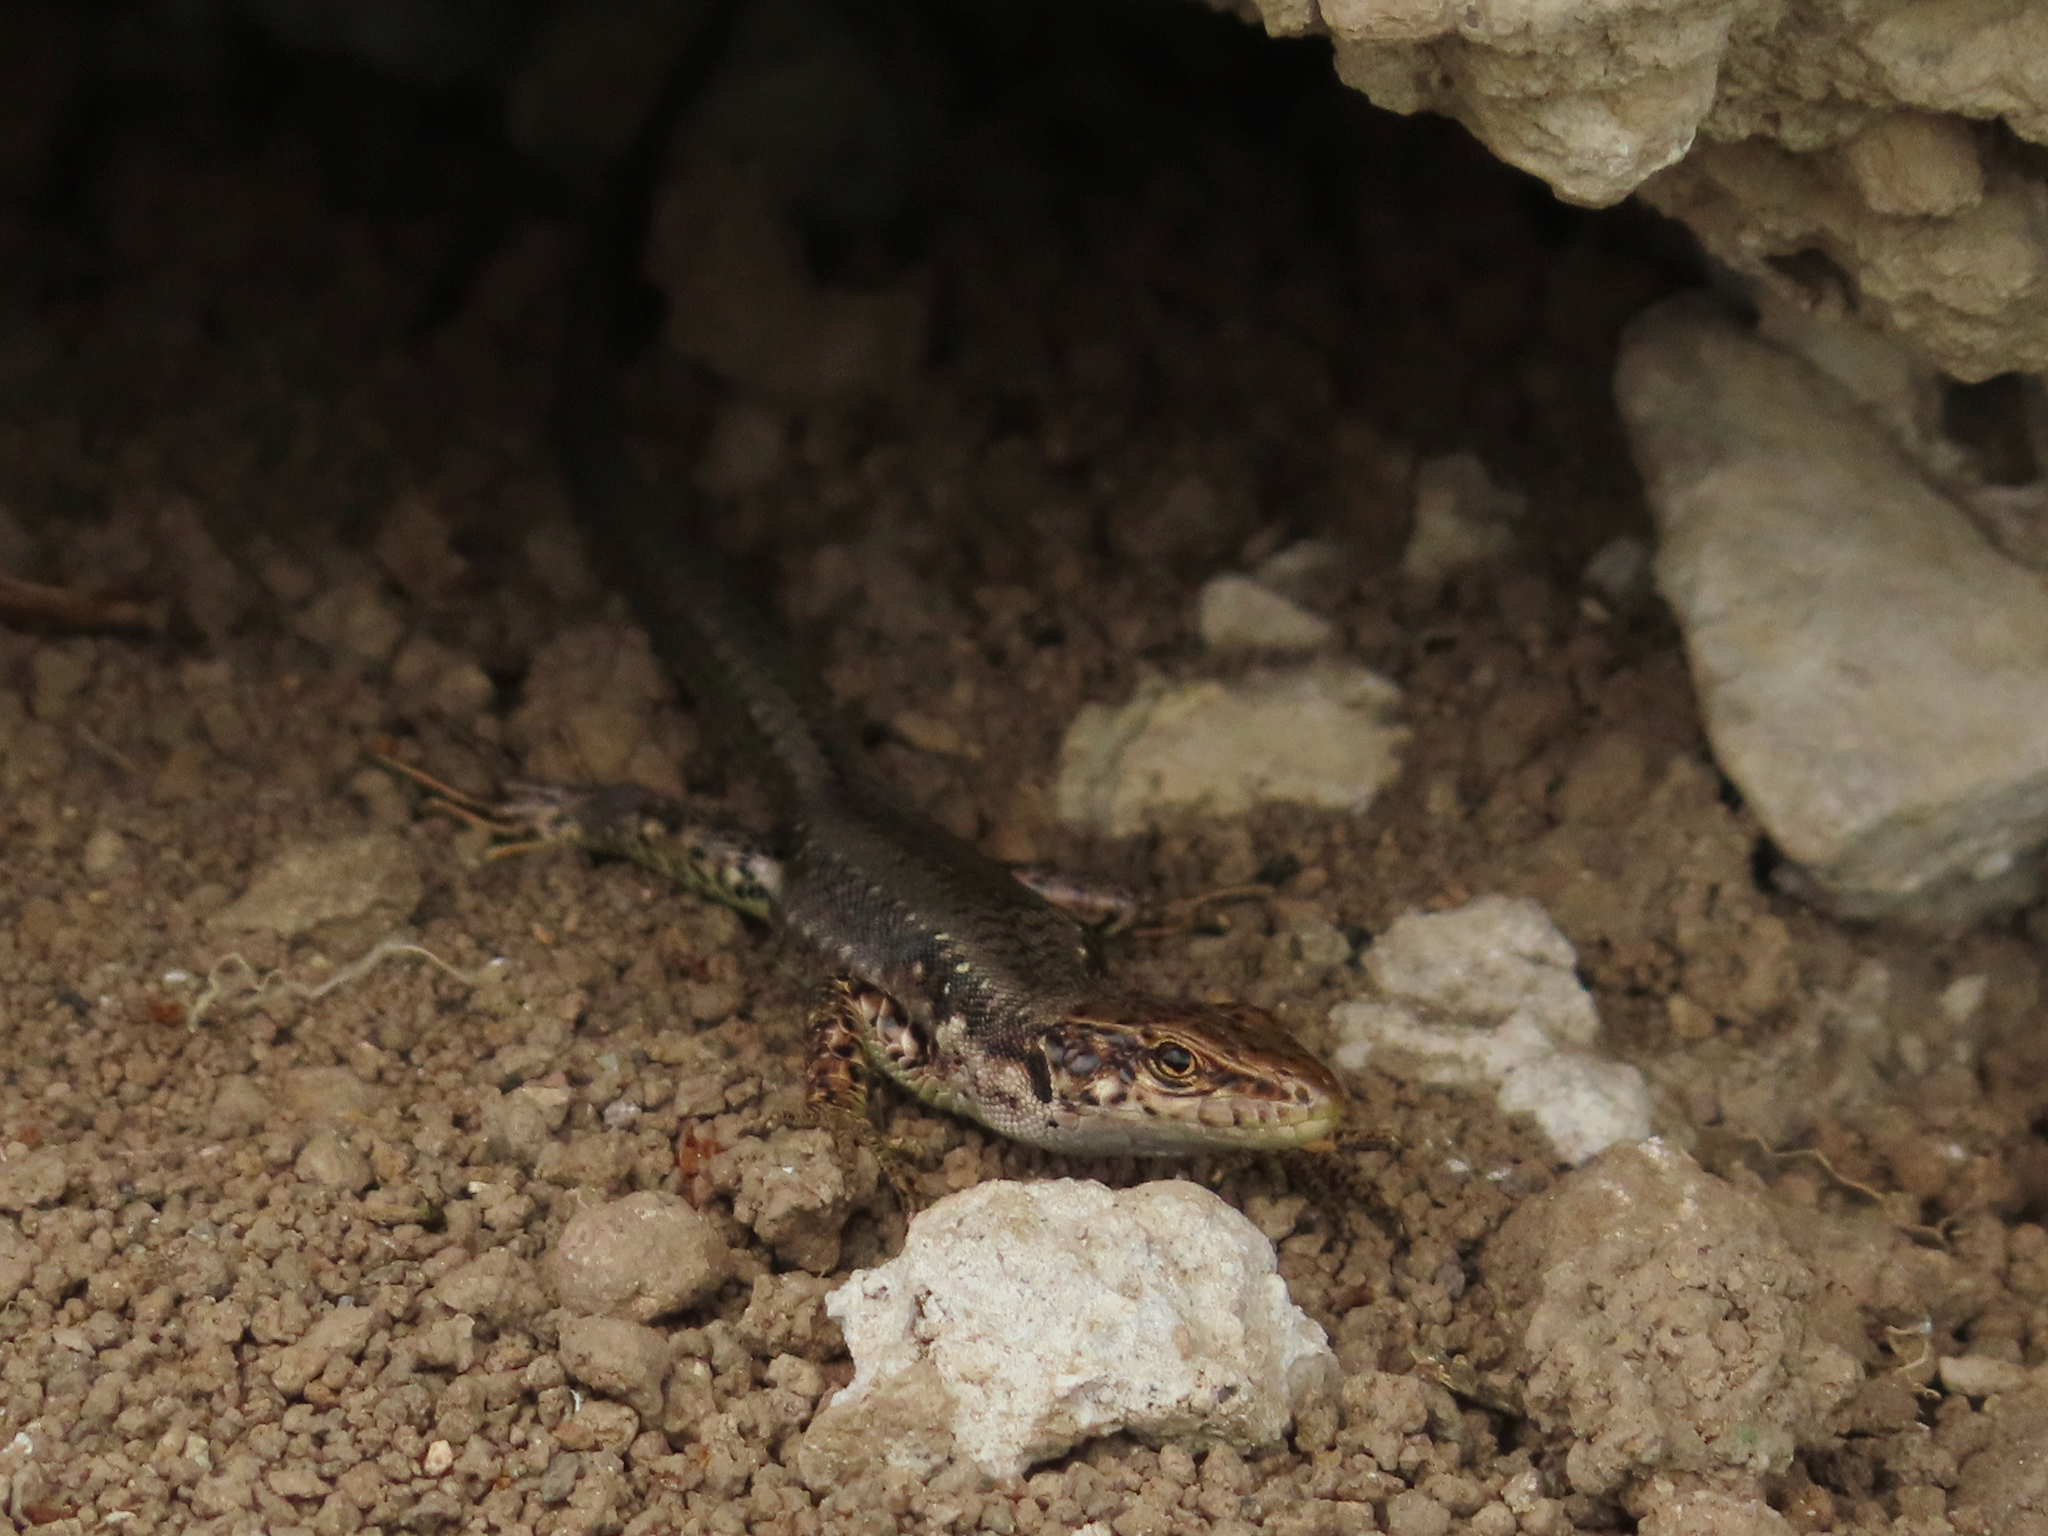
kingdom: Animalia
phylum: Chordata
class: Squamata
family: Lacertidae
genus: Darevskia
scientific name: Darevskia armeniaca
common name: Armenian lizard
